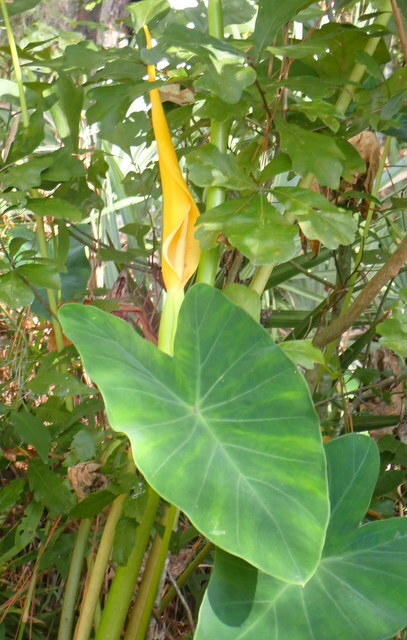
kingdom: Plantae
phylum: Tracheophyta
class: Liliopsida
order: Alismatales
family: Araceae
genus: Colocasia
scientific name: Colocasia esculenta
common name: Taro
